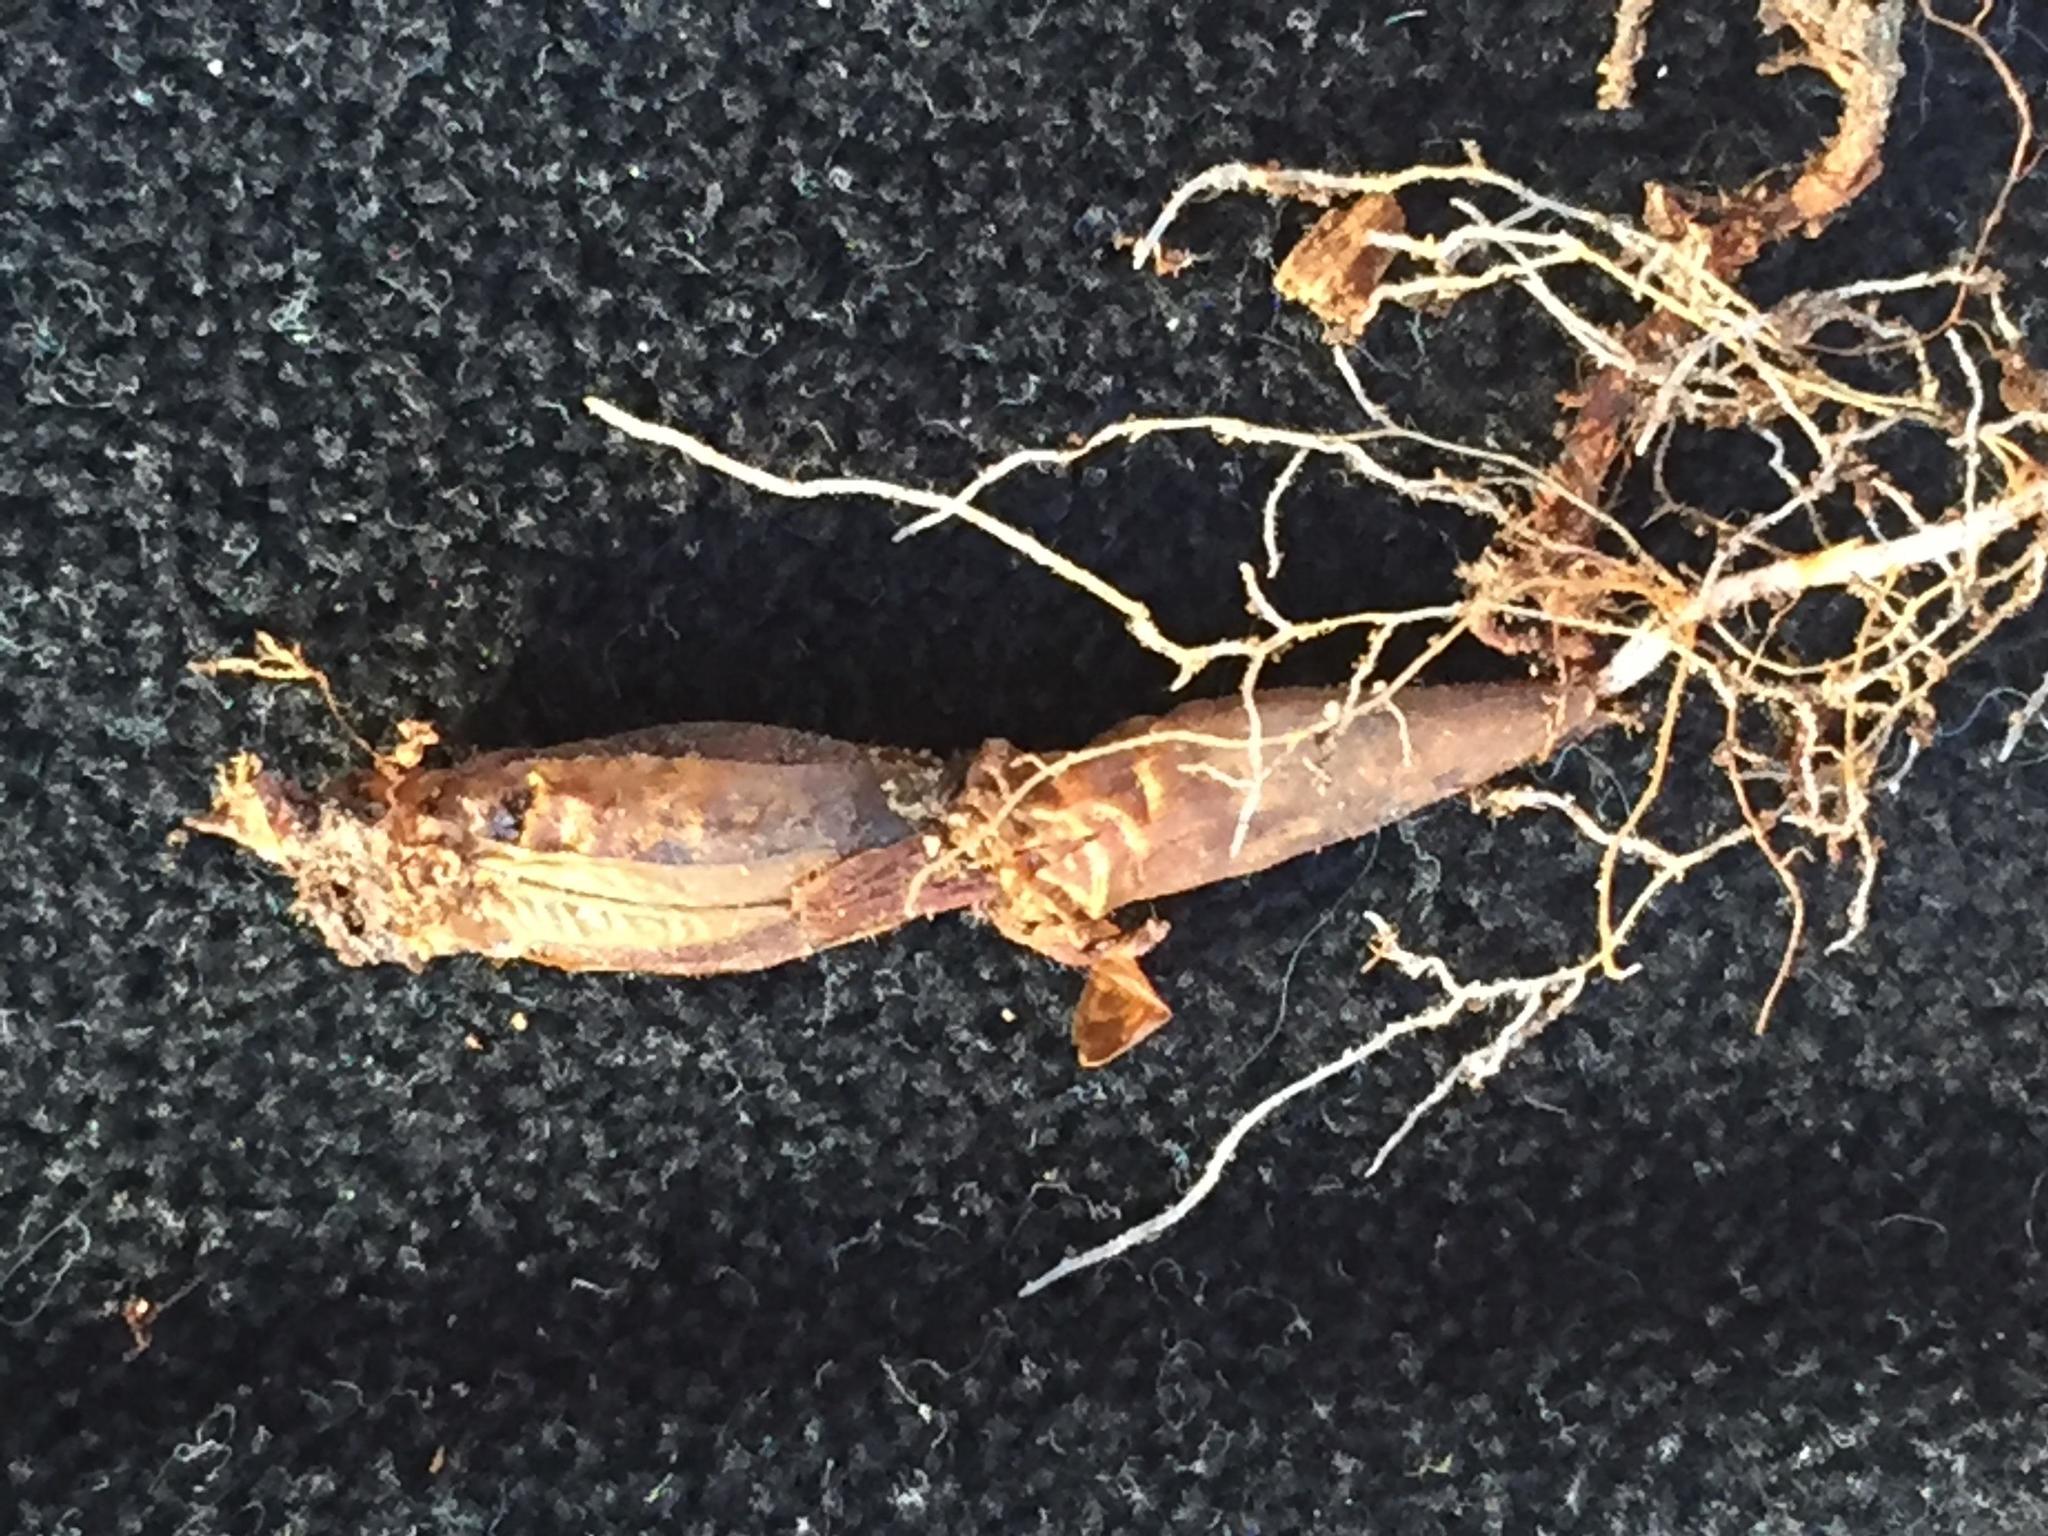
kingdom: Plantae
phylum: Tracheophyta
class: Magnoliopsida
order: Oxalidales
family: Oxalidaceae
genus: Oxalis
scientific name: Oxalis imbricata
